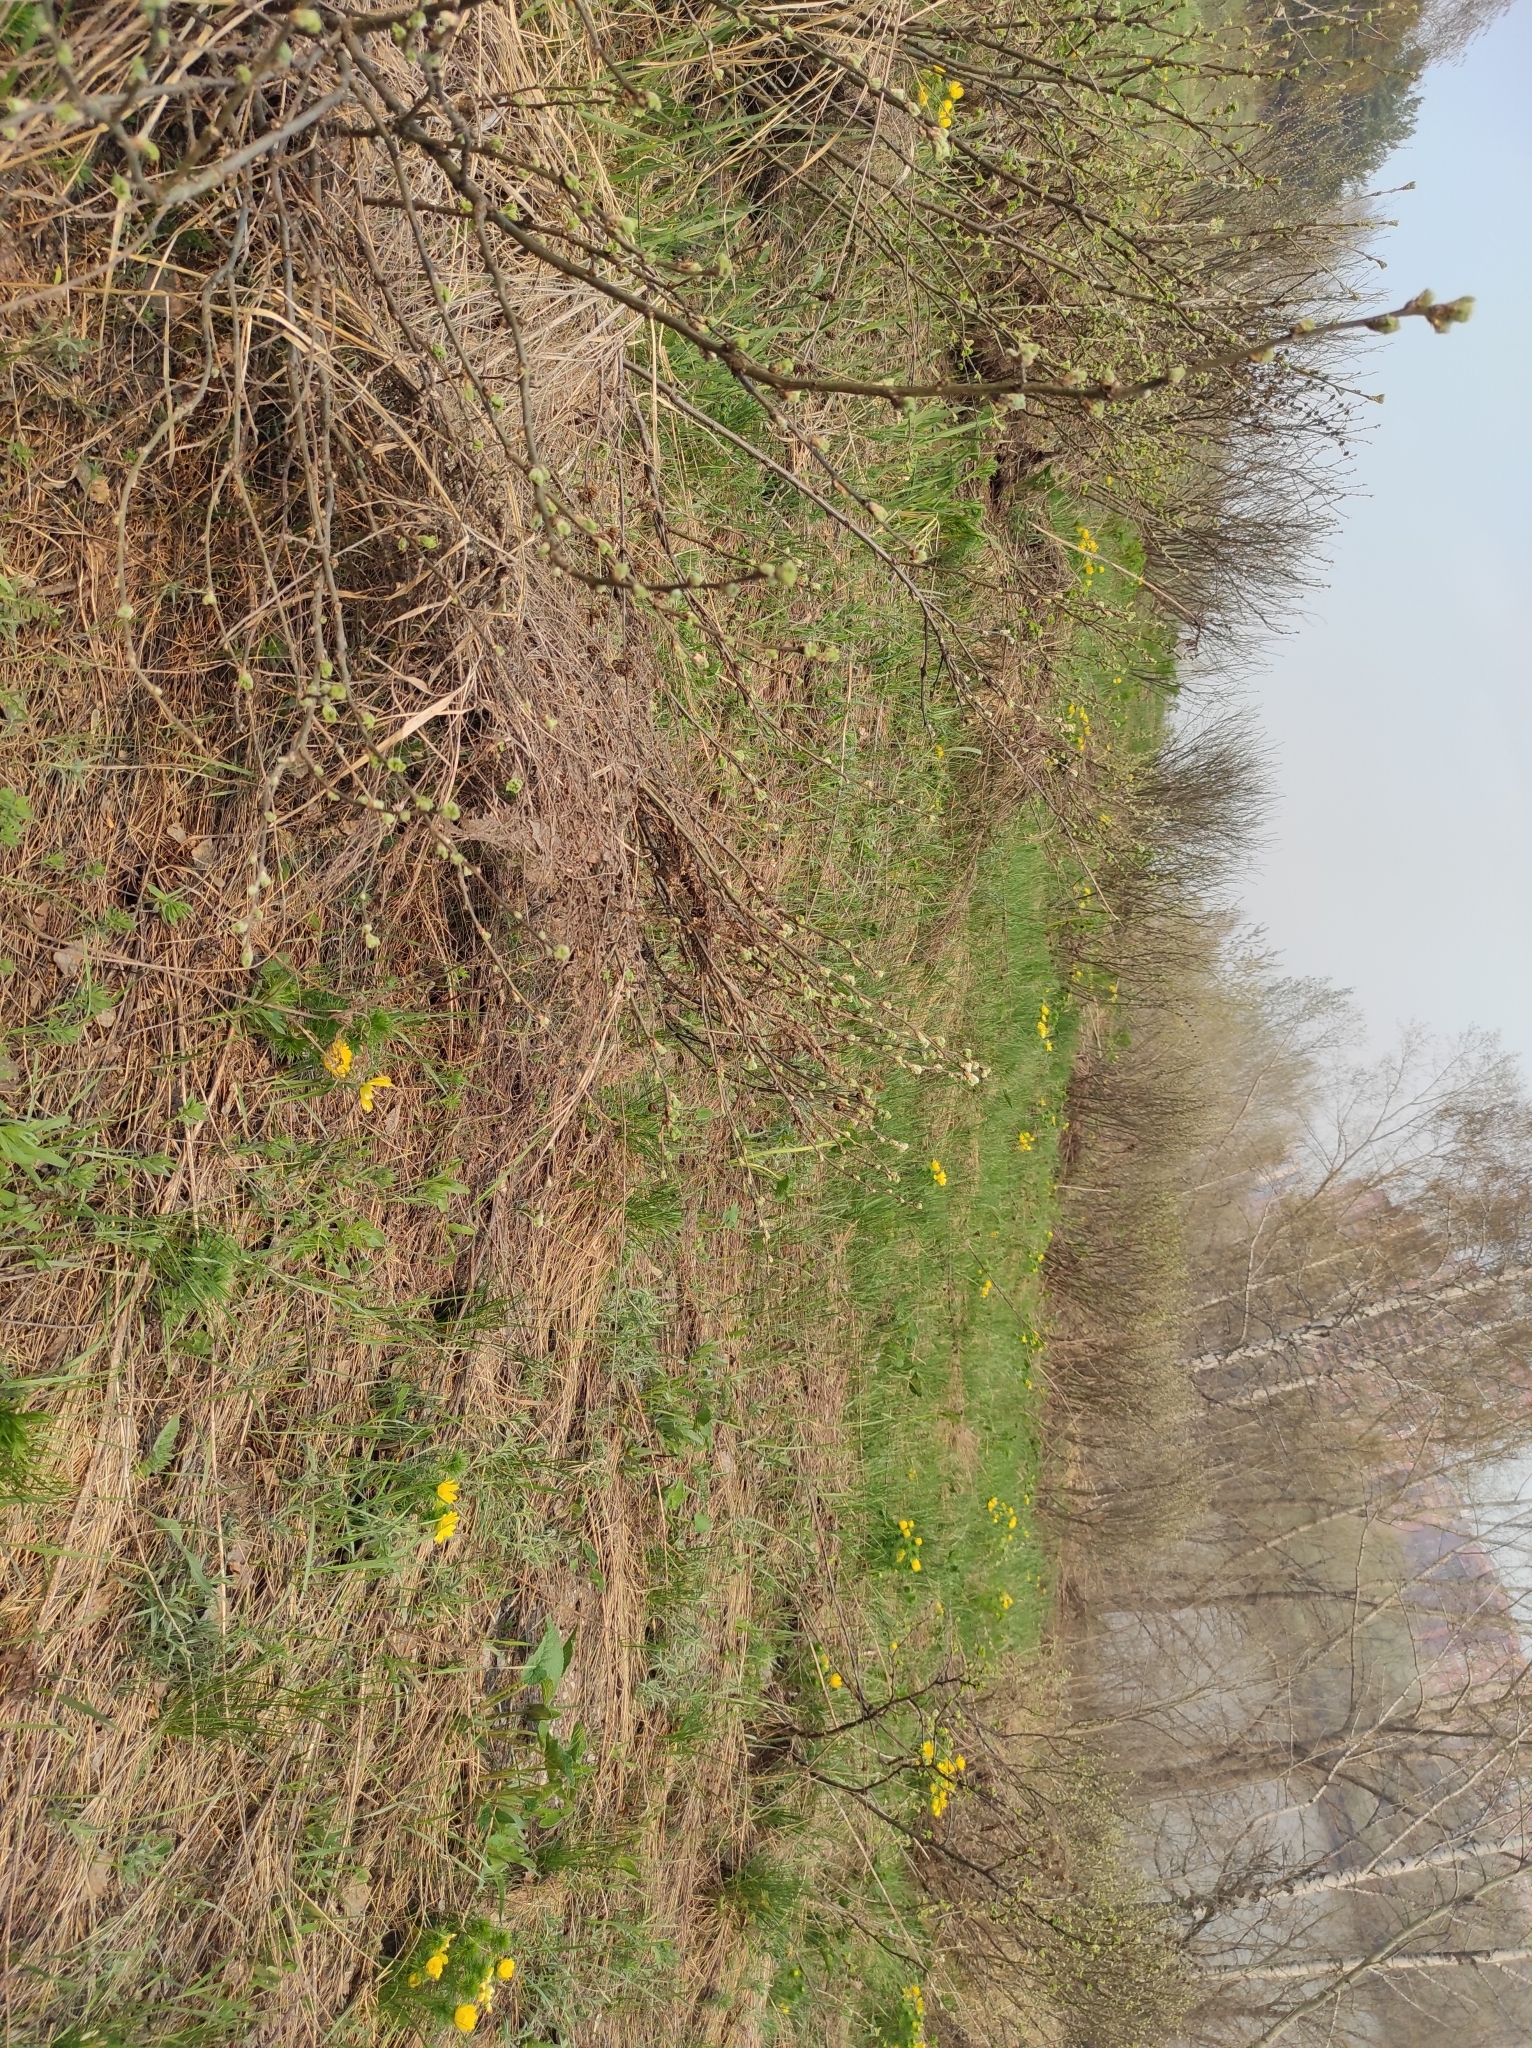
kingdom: Plantae
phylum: Tracheophyta
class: Magnoliopsida
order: Ranunculales
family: Ranunculaceae
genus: Adonis
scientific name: Adonis vernalis
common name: Yellow pheasants-eye
